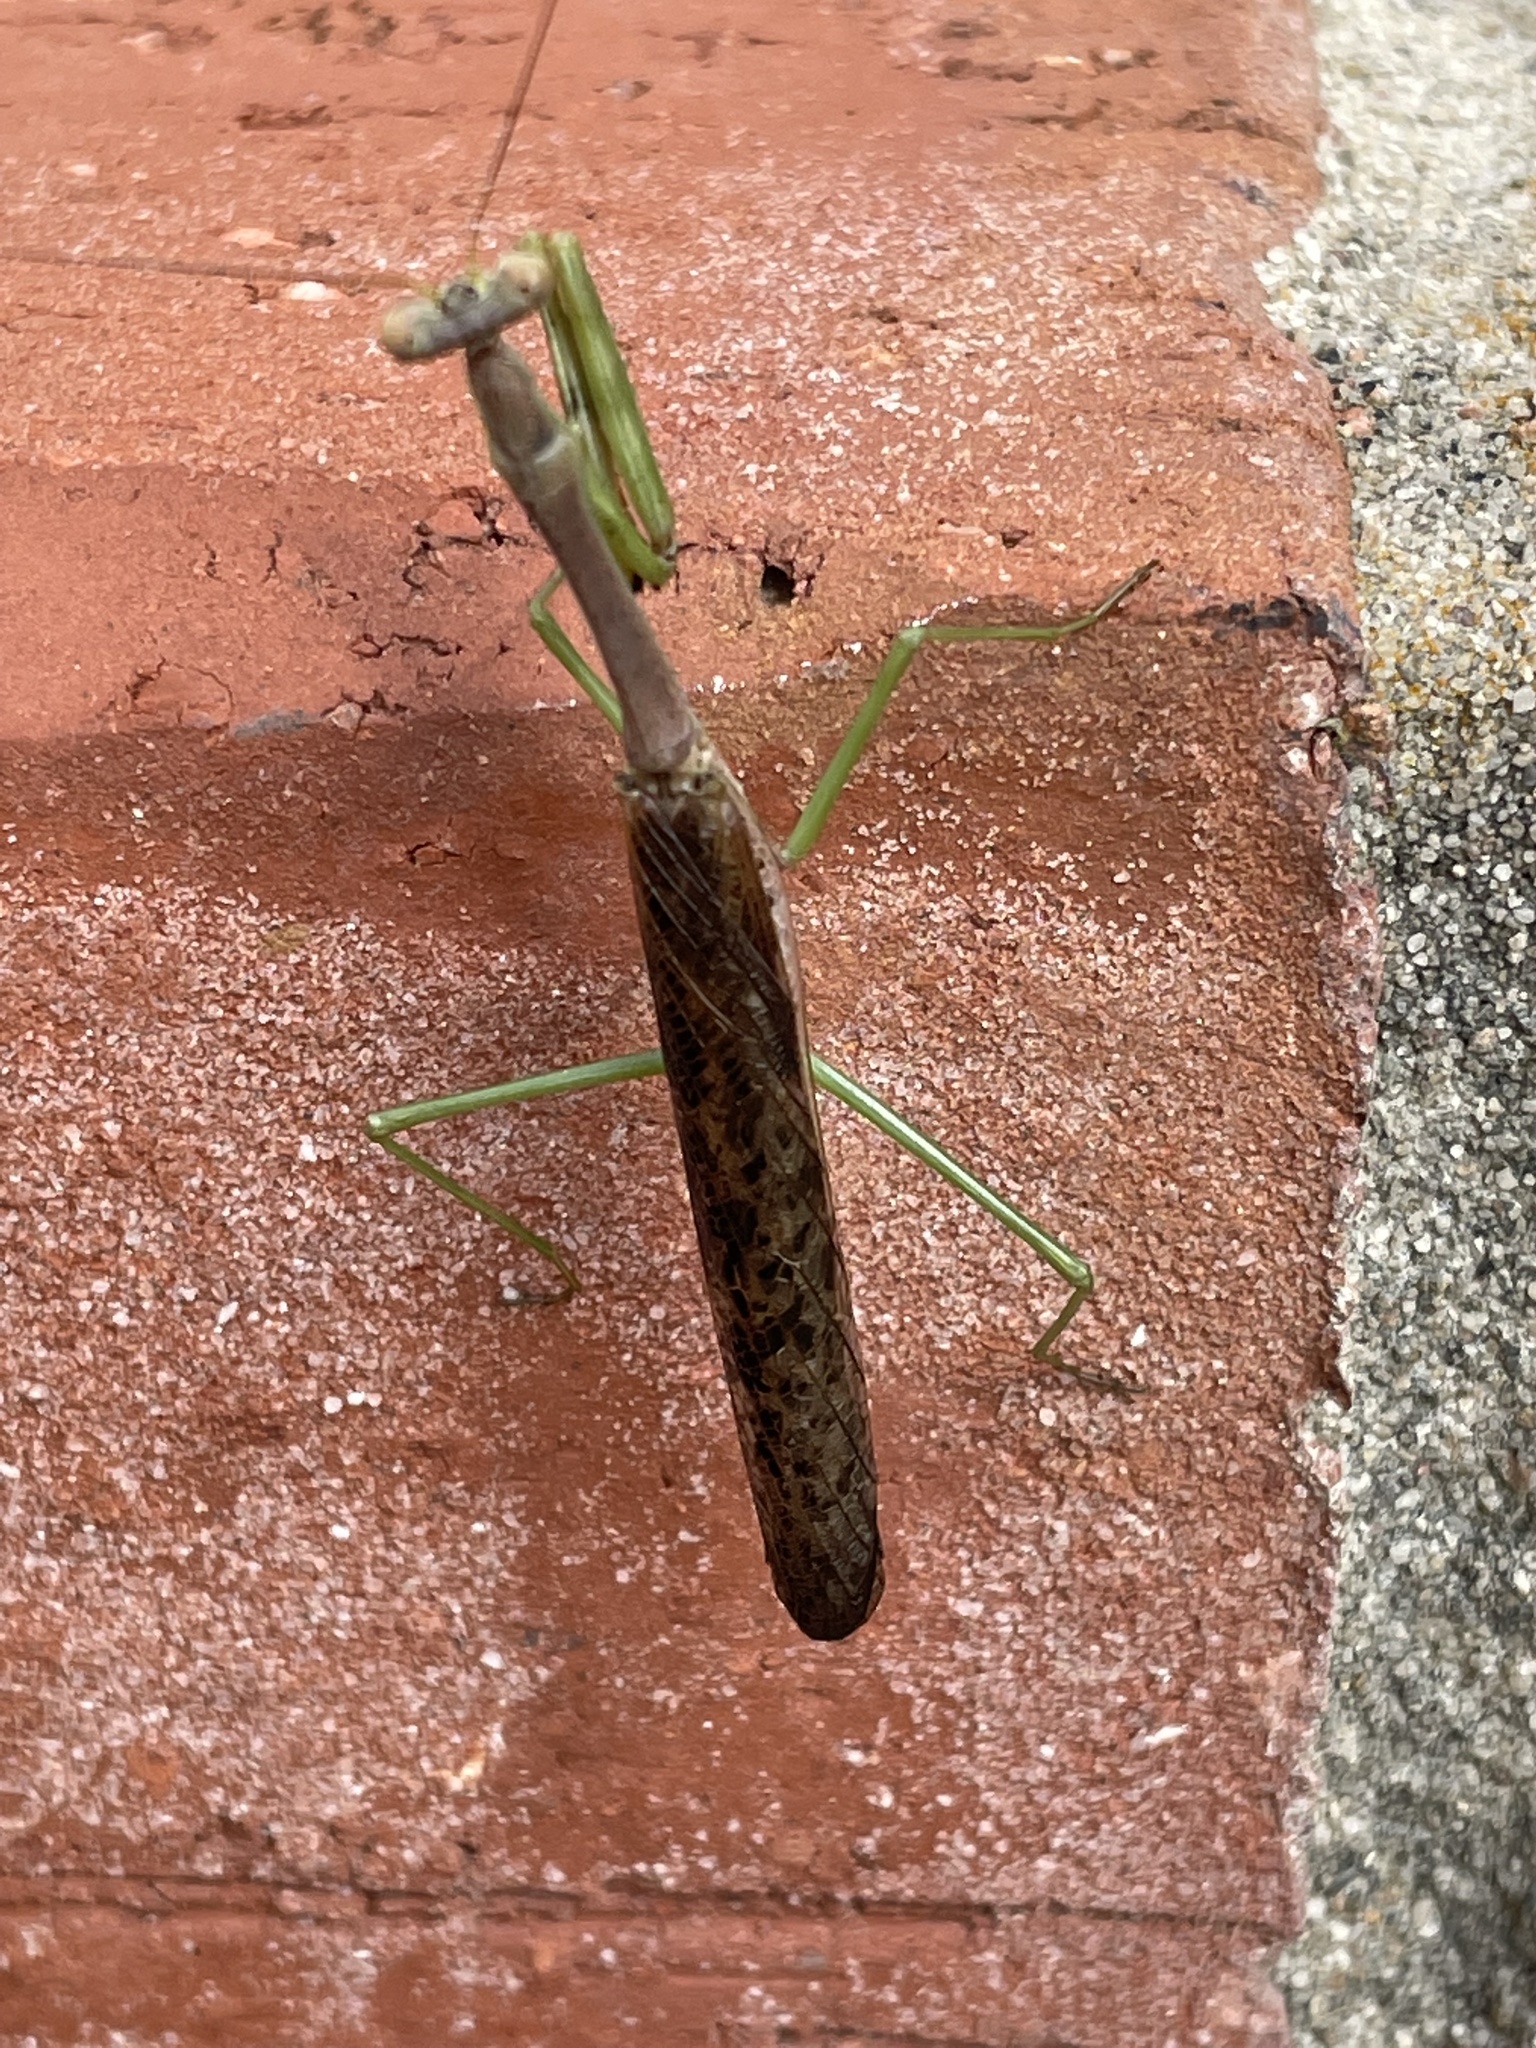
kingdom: Animalia
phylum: Arthropoda
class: Insecta
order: Mantodea
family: Mantidae
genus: Stagmomantis
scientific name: Stagmomantis carolina
